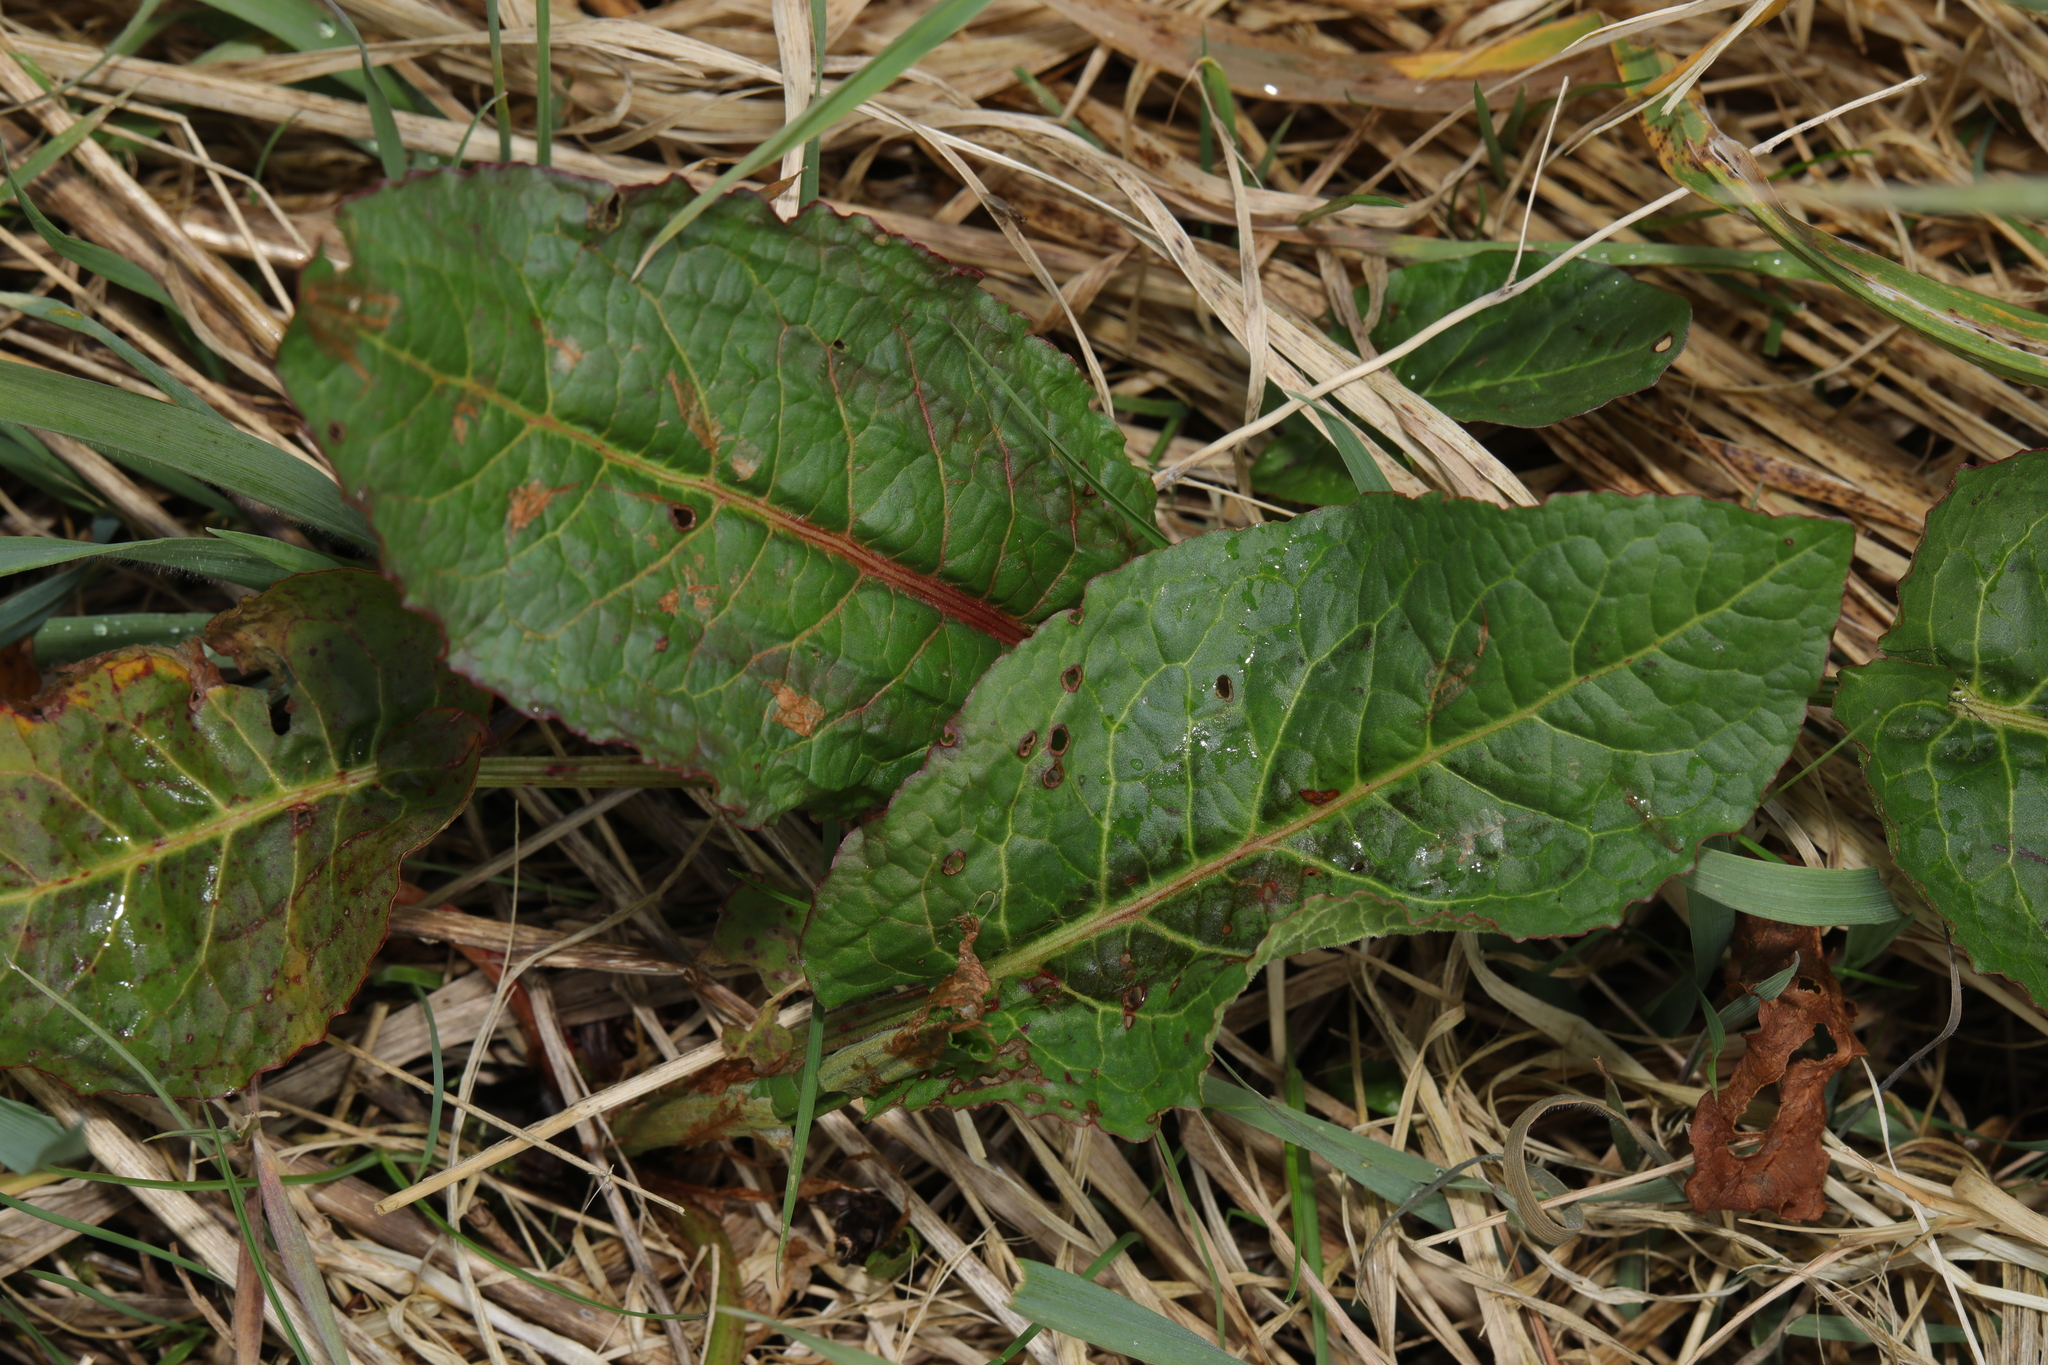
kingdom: Plantae
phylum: Tracheophyta
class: Magnoliopsida
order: Caryophyllales
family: Polygonaceae
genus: Rumex
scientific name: Rumex obtusifolius
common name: Bitter dock
